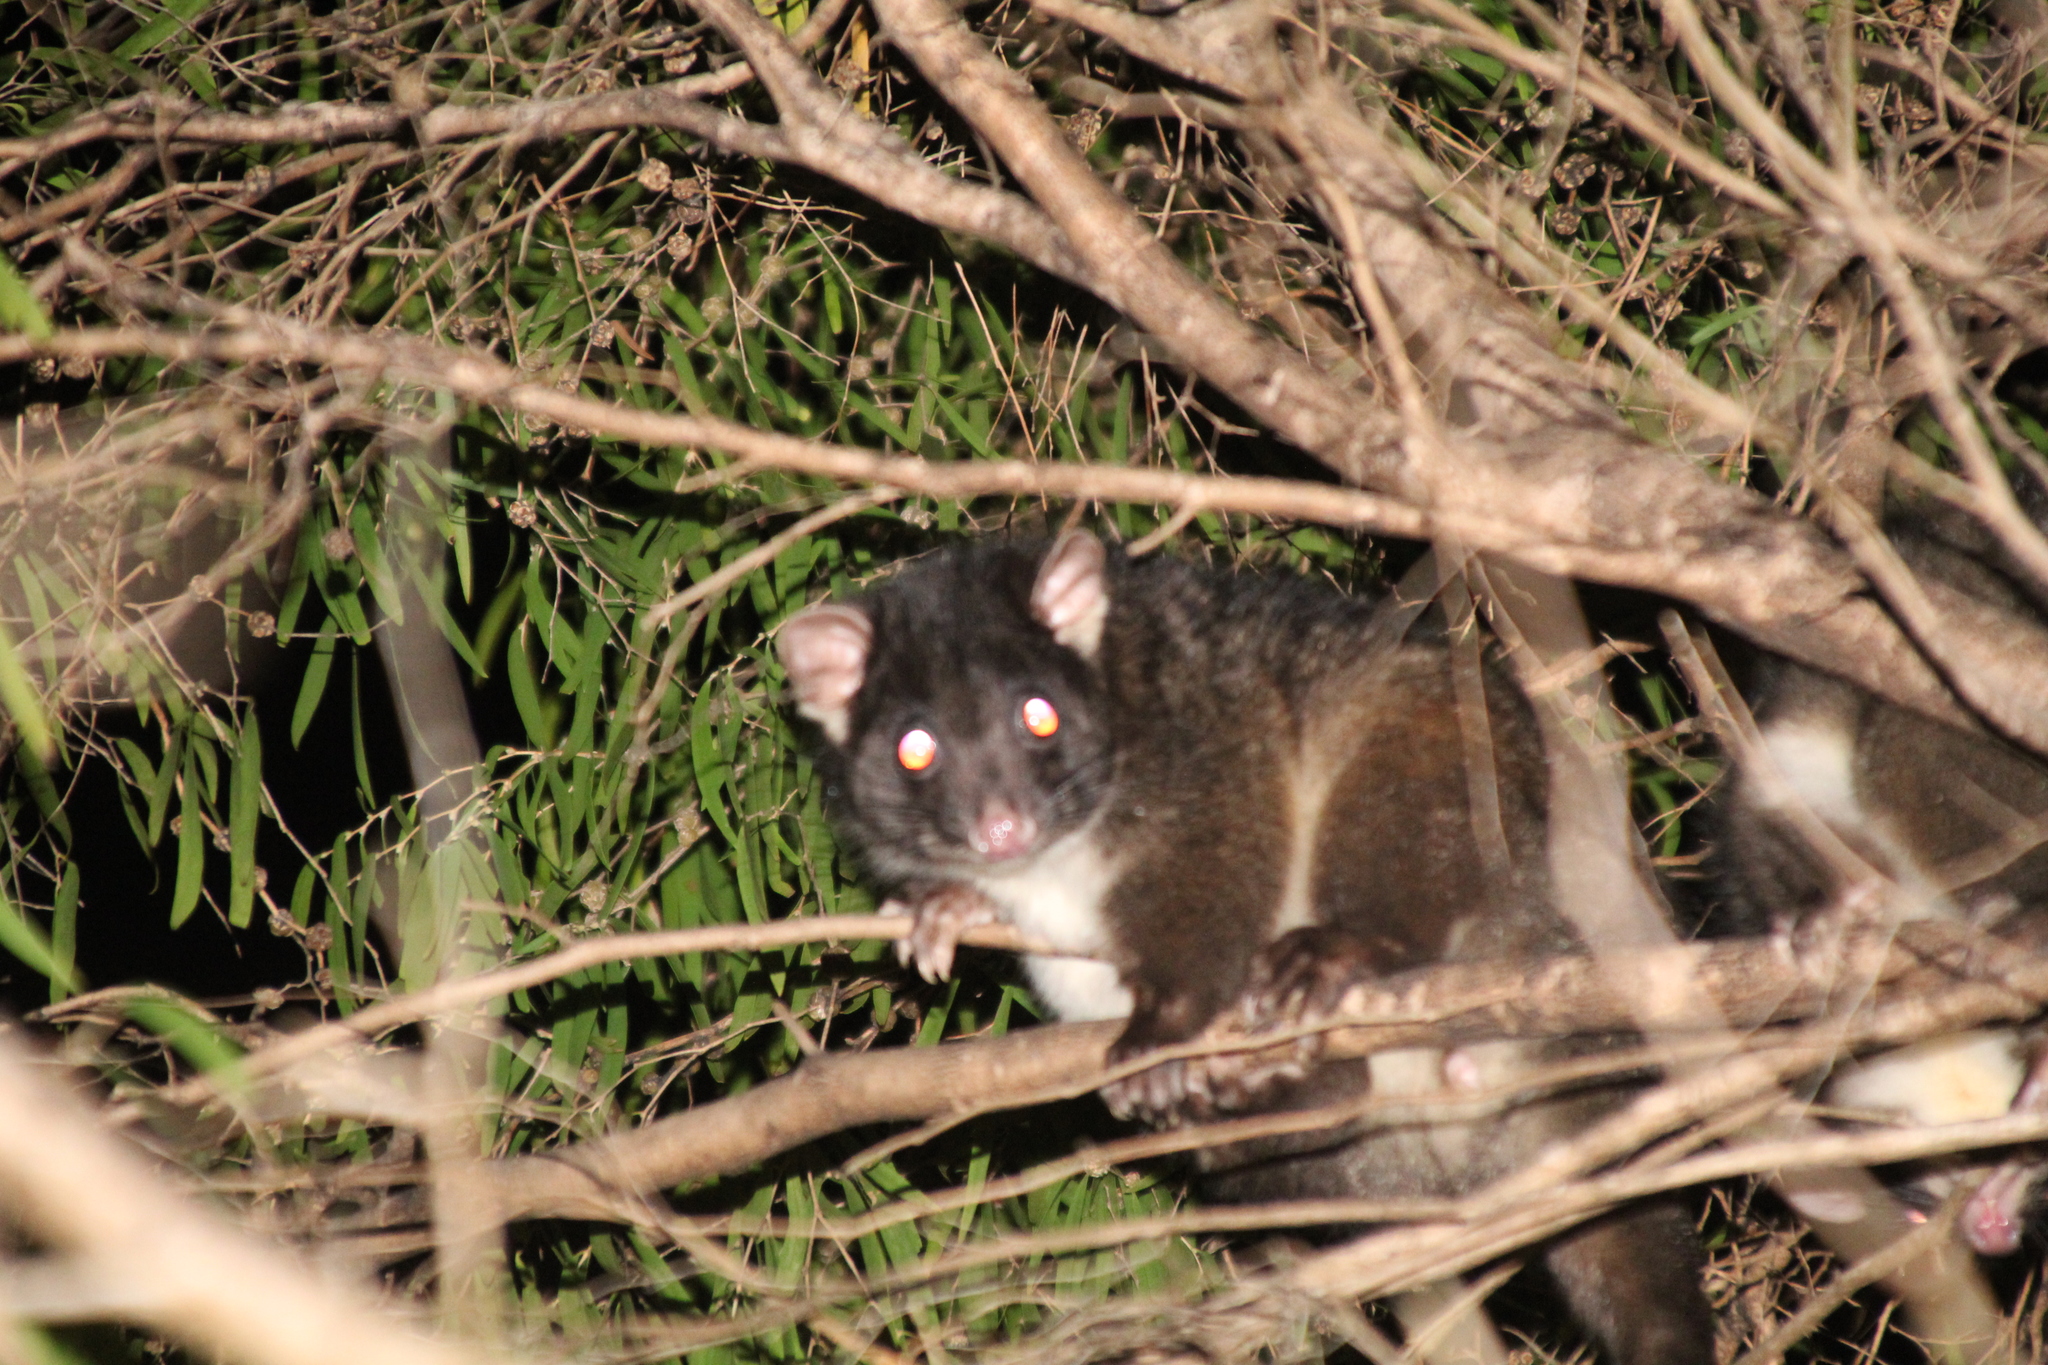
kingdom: Animalia
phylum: Chordata
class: Mammalia
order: Diprotodontia
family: Pseudocheiridae
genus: Pseudocheirus
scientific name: Pseudocheirus peregrinus
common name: Common ringtail possum
